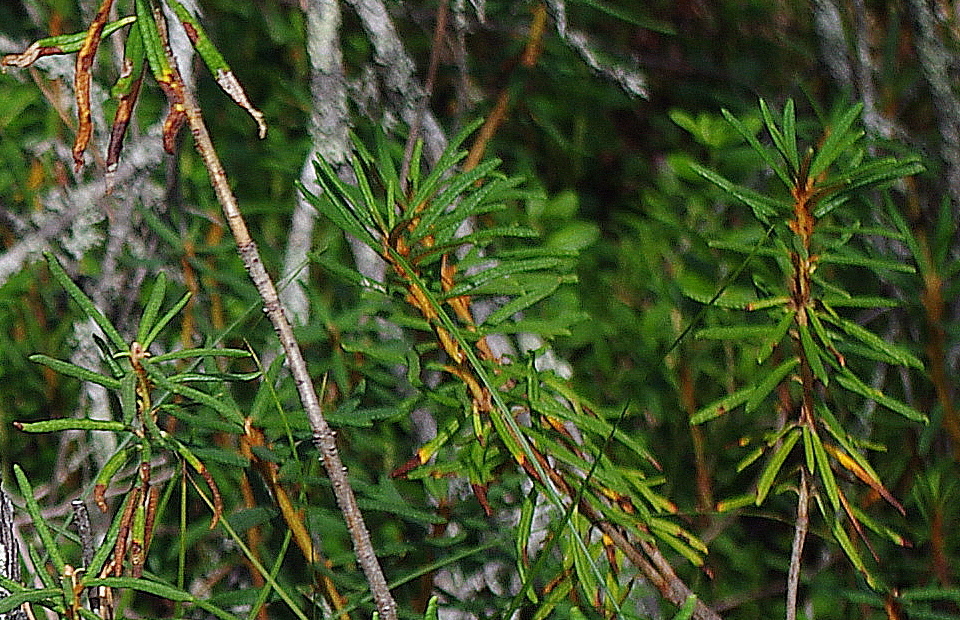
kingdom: Plantae
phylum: Tracheophyta
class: Magnoliopsida
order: Ericales
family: Ericaceae
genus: Rhododendron
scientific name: Rhododendron tomentosum
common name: Marsh labrador tea
